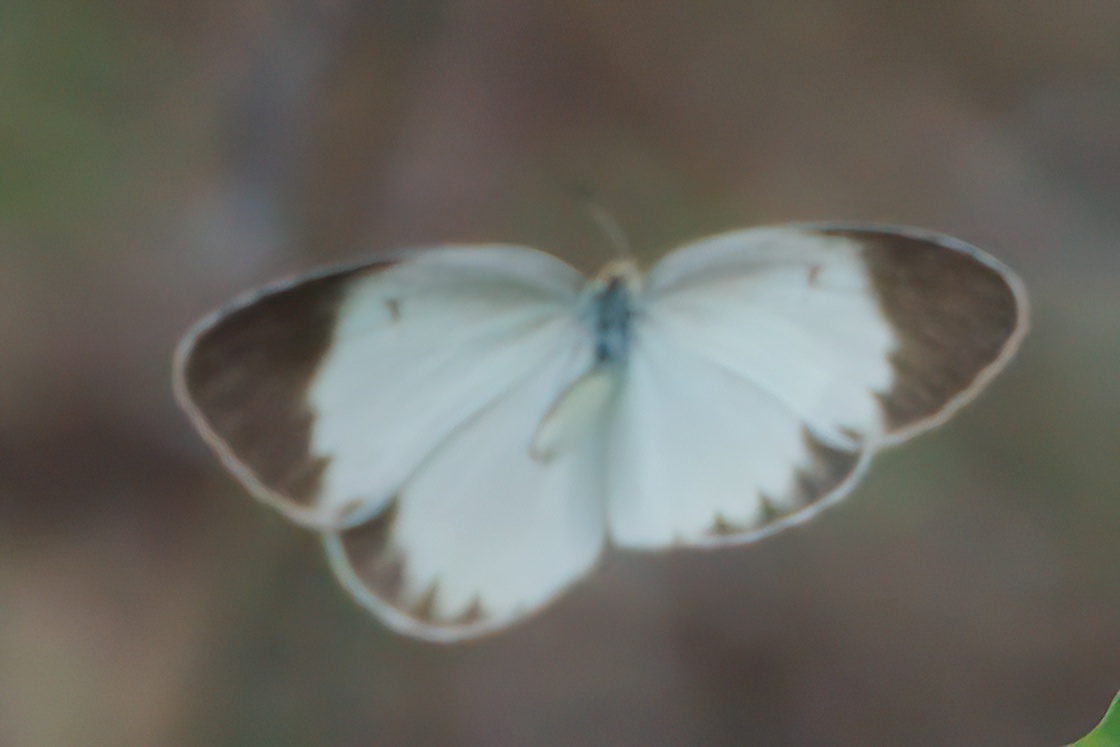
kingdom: Animalia
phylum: Arthropoda
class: Insecta
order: Lepidoptera
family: Pieridae
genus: Pyrisitia
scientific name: Pyrisitia lisa
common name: Little yellow
